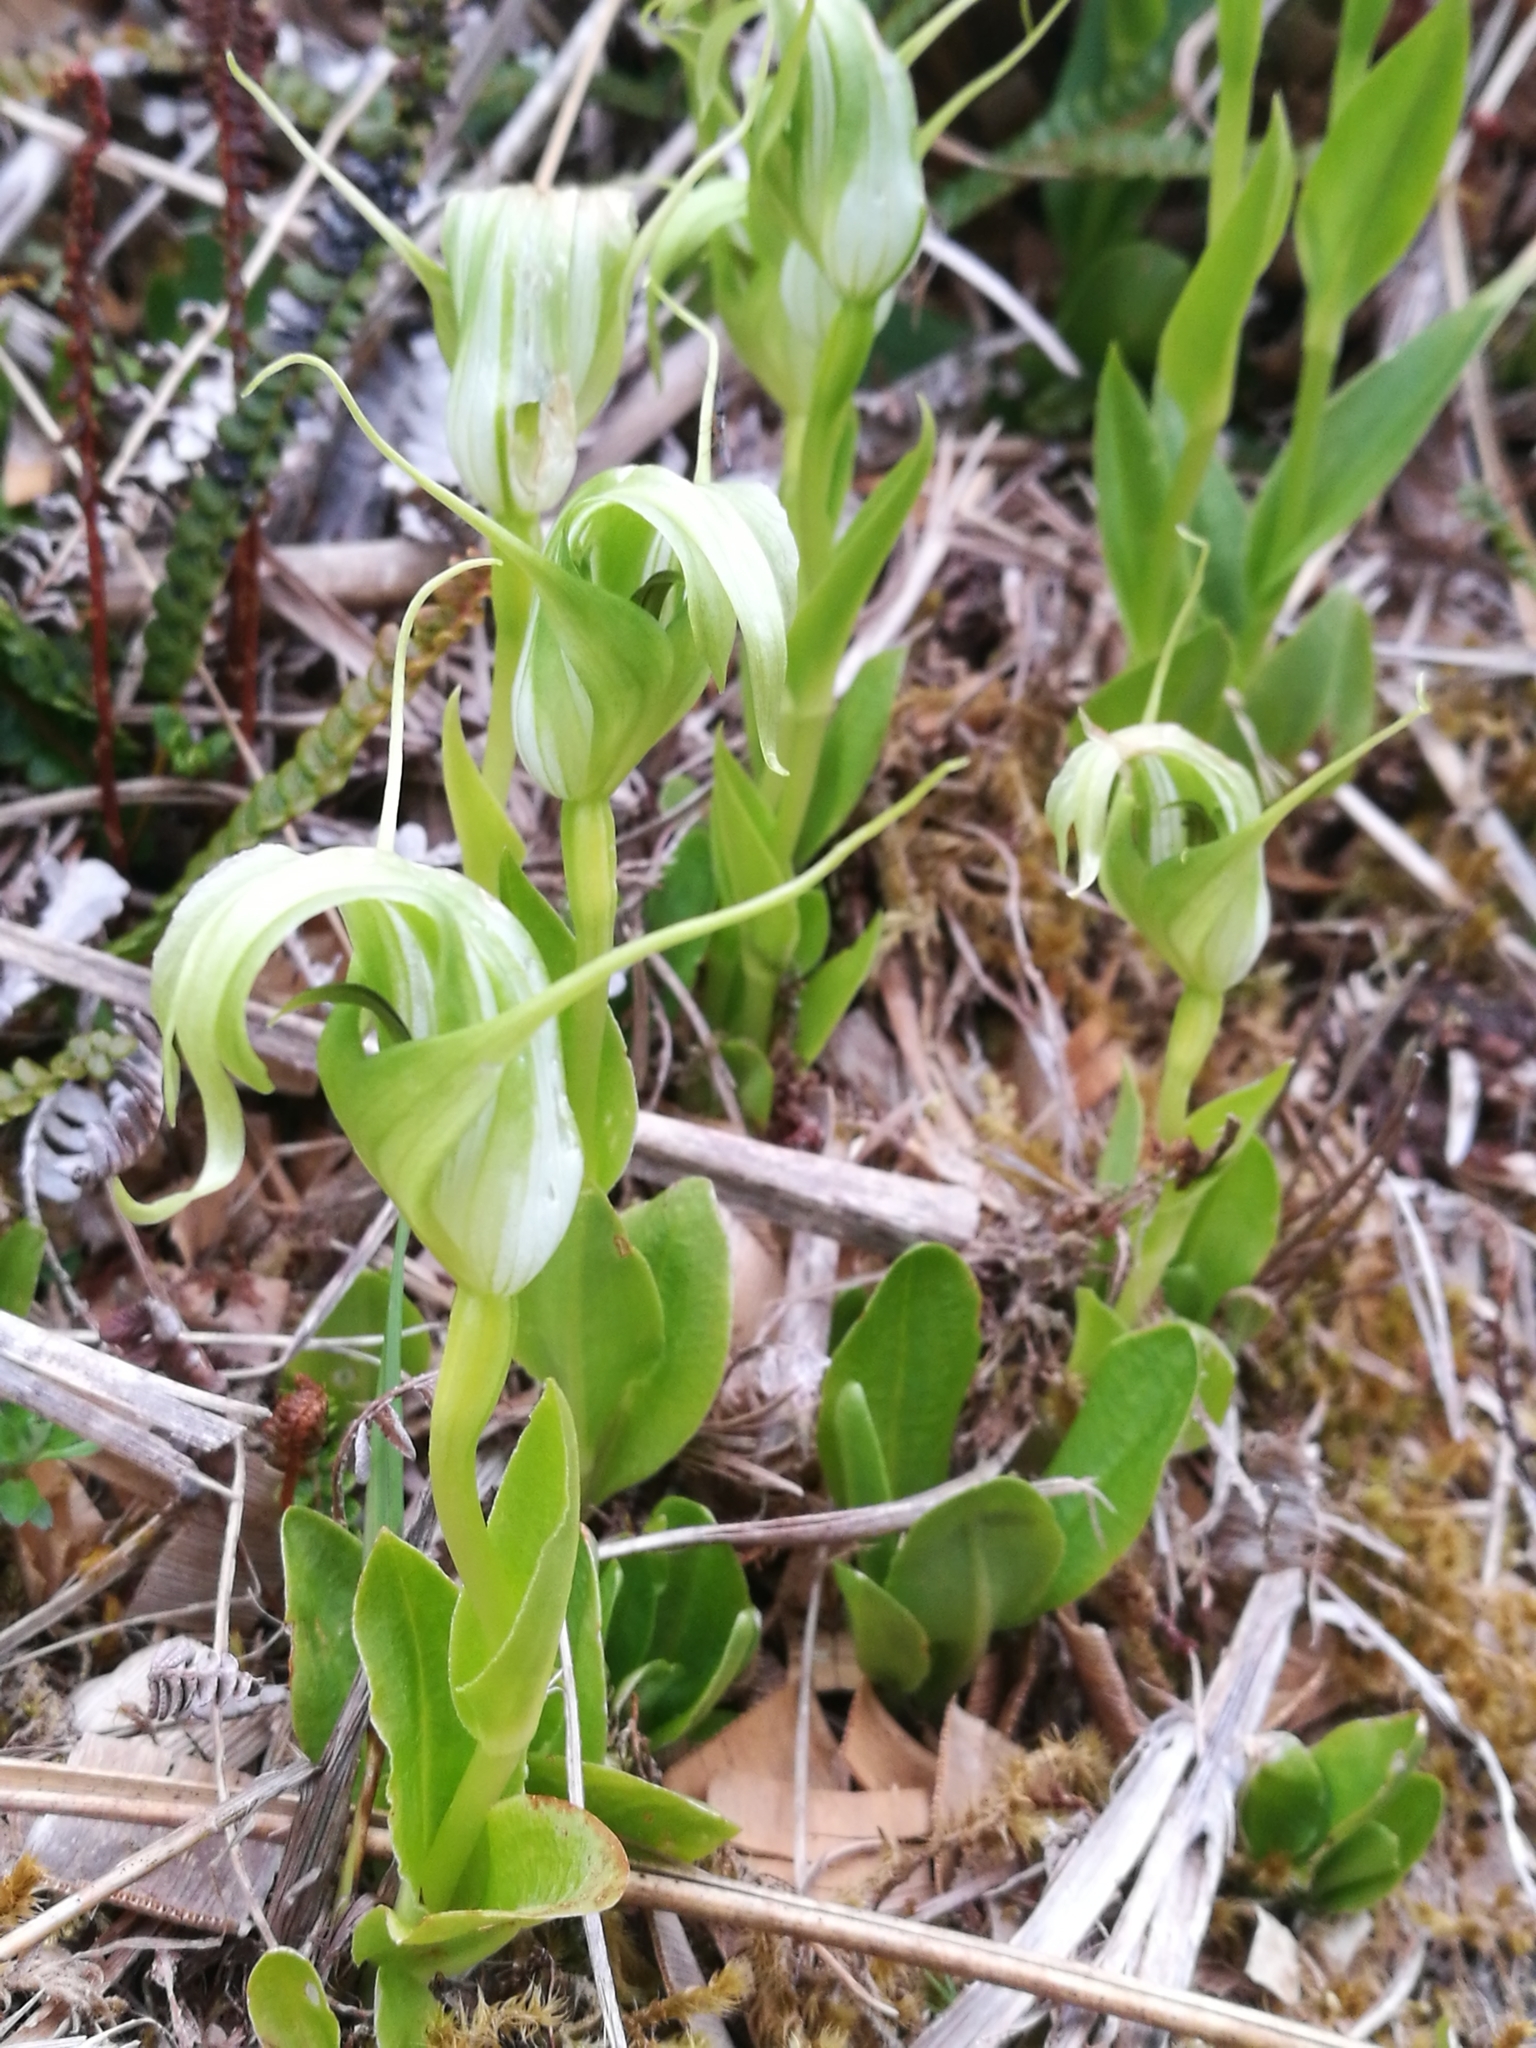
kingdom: Plantae
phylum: Tracheophyta
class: Liliopsida
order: Asparagales
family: Orchidaceae
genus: Pterostylis
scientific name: Pterostylis oliveri
